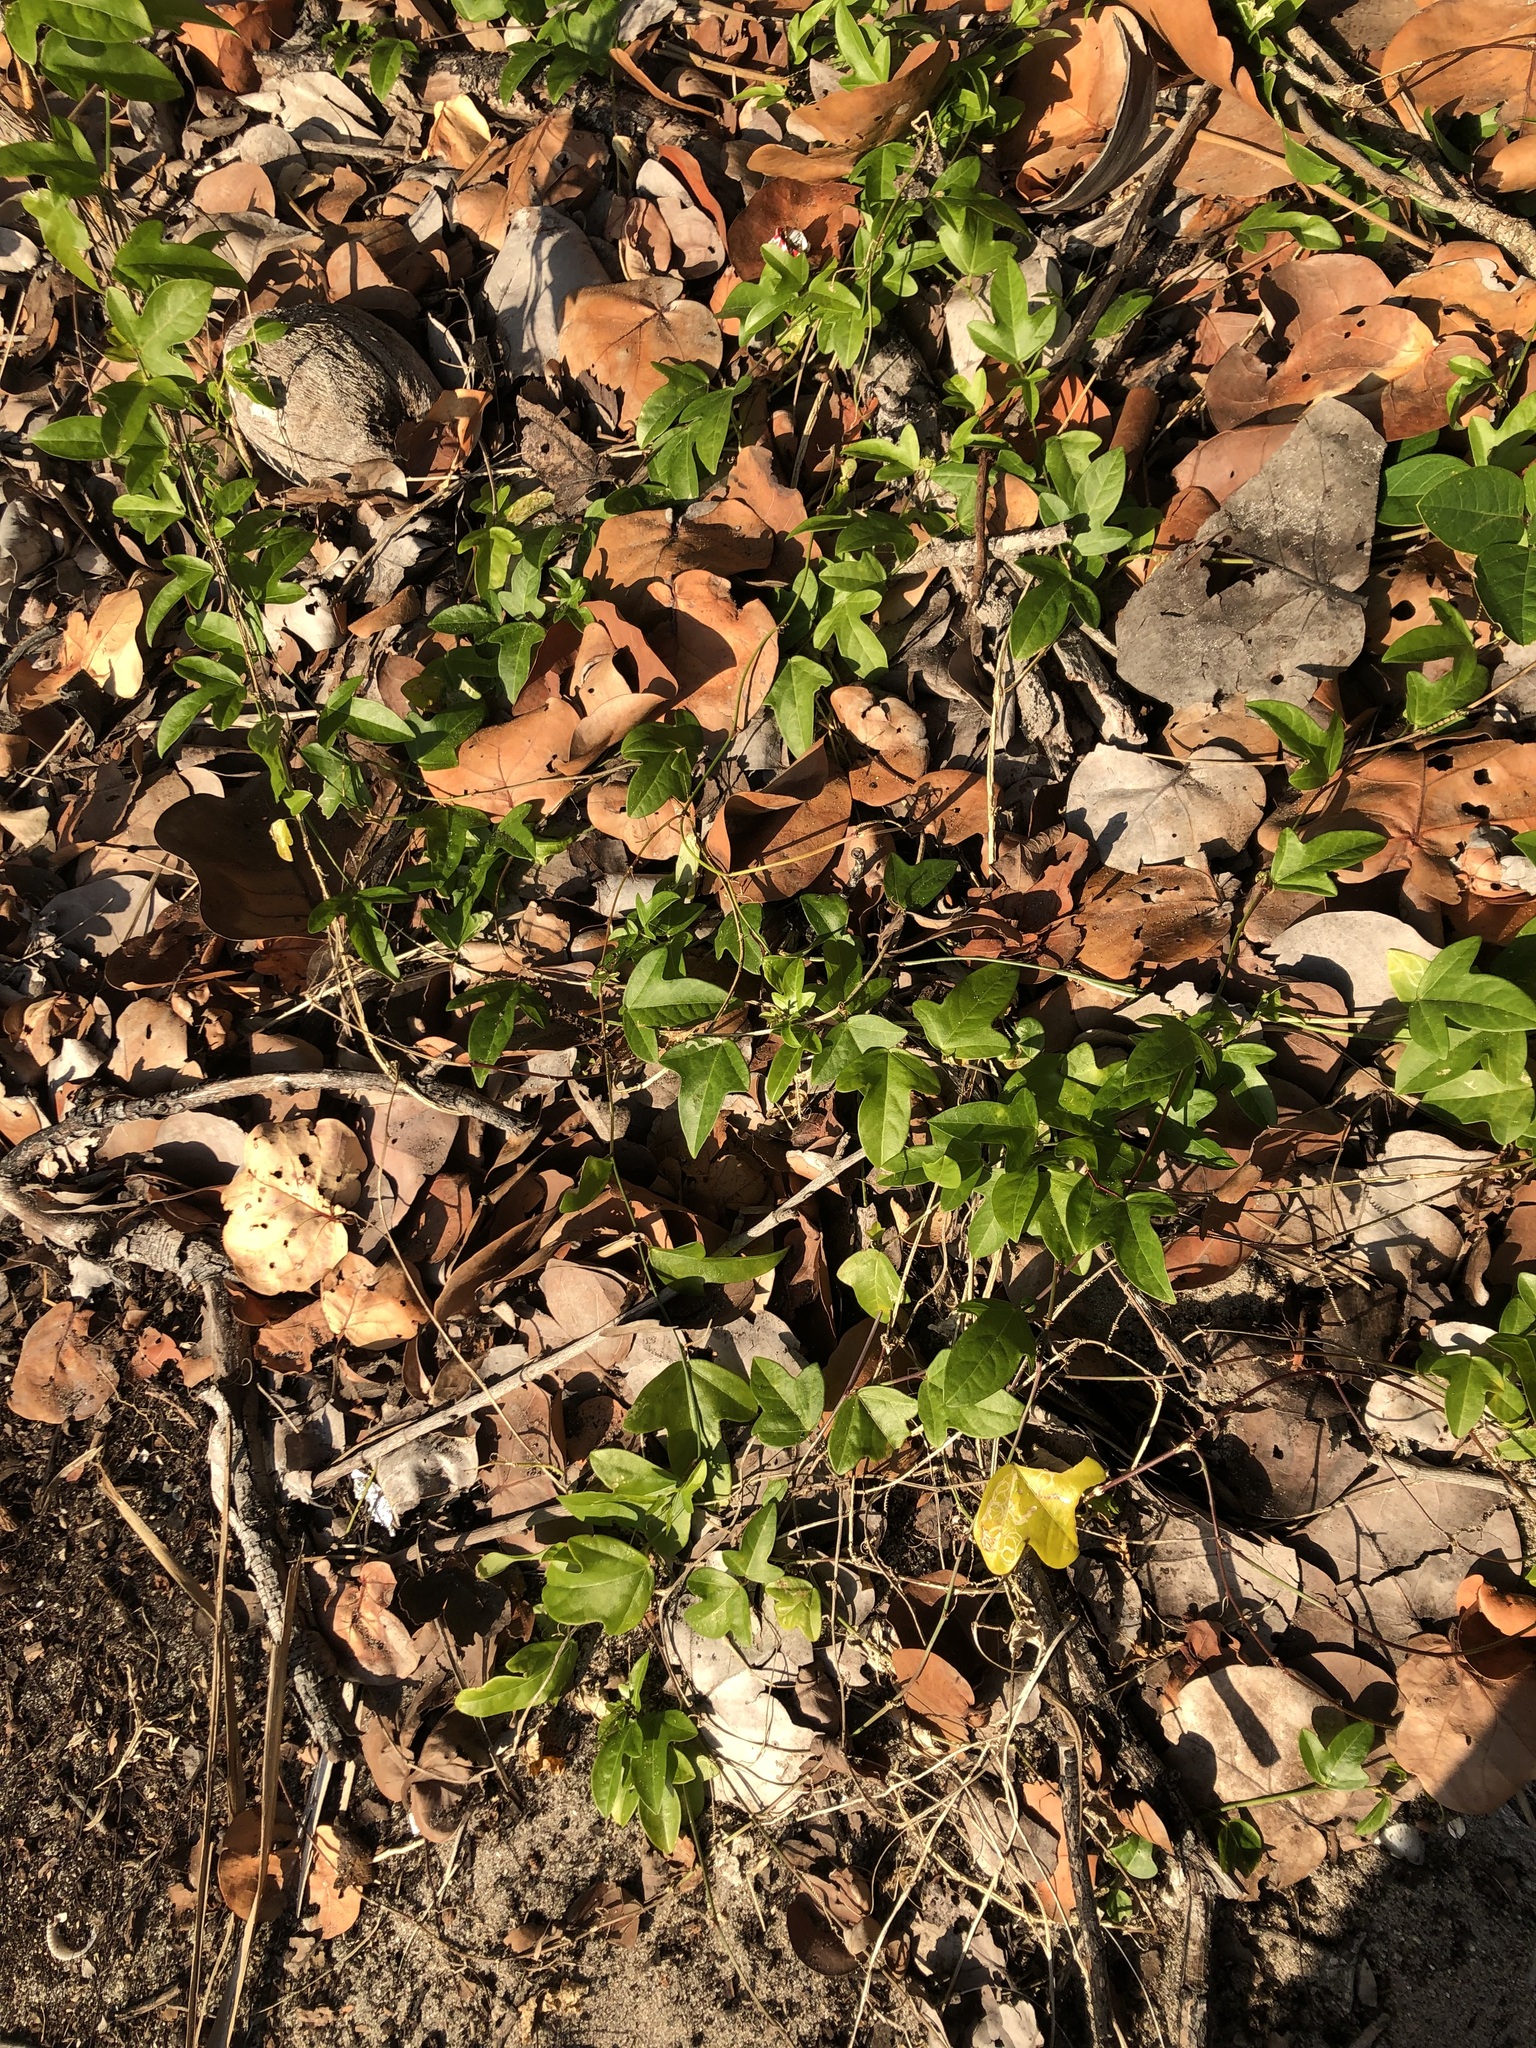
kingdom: Plantae
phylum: Tracheophyta
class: Magnoliopsida
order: Malpighiales
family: Passifloraceae
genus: Passiflora
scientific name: Passiflora pallida
